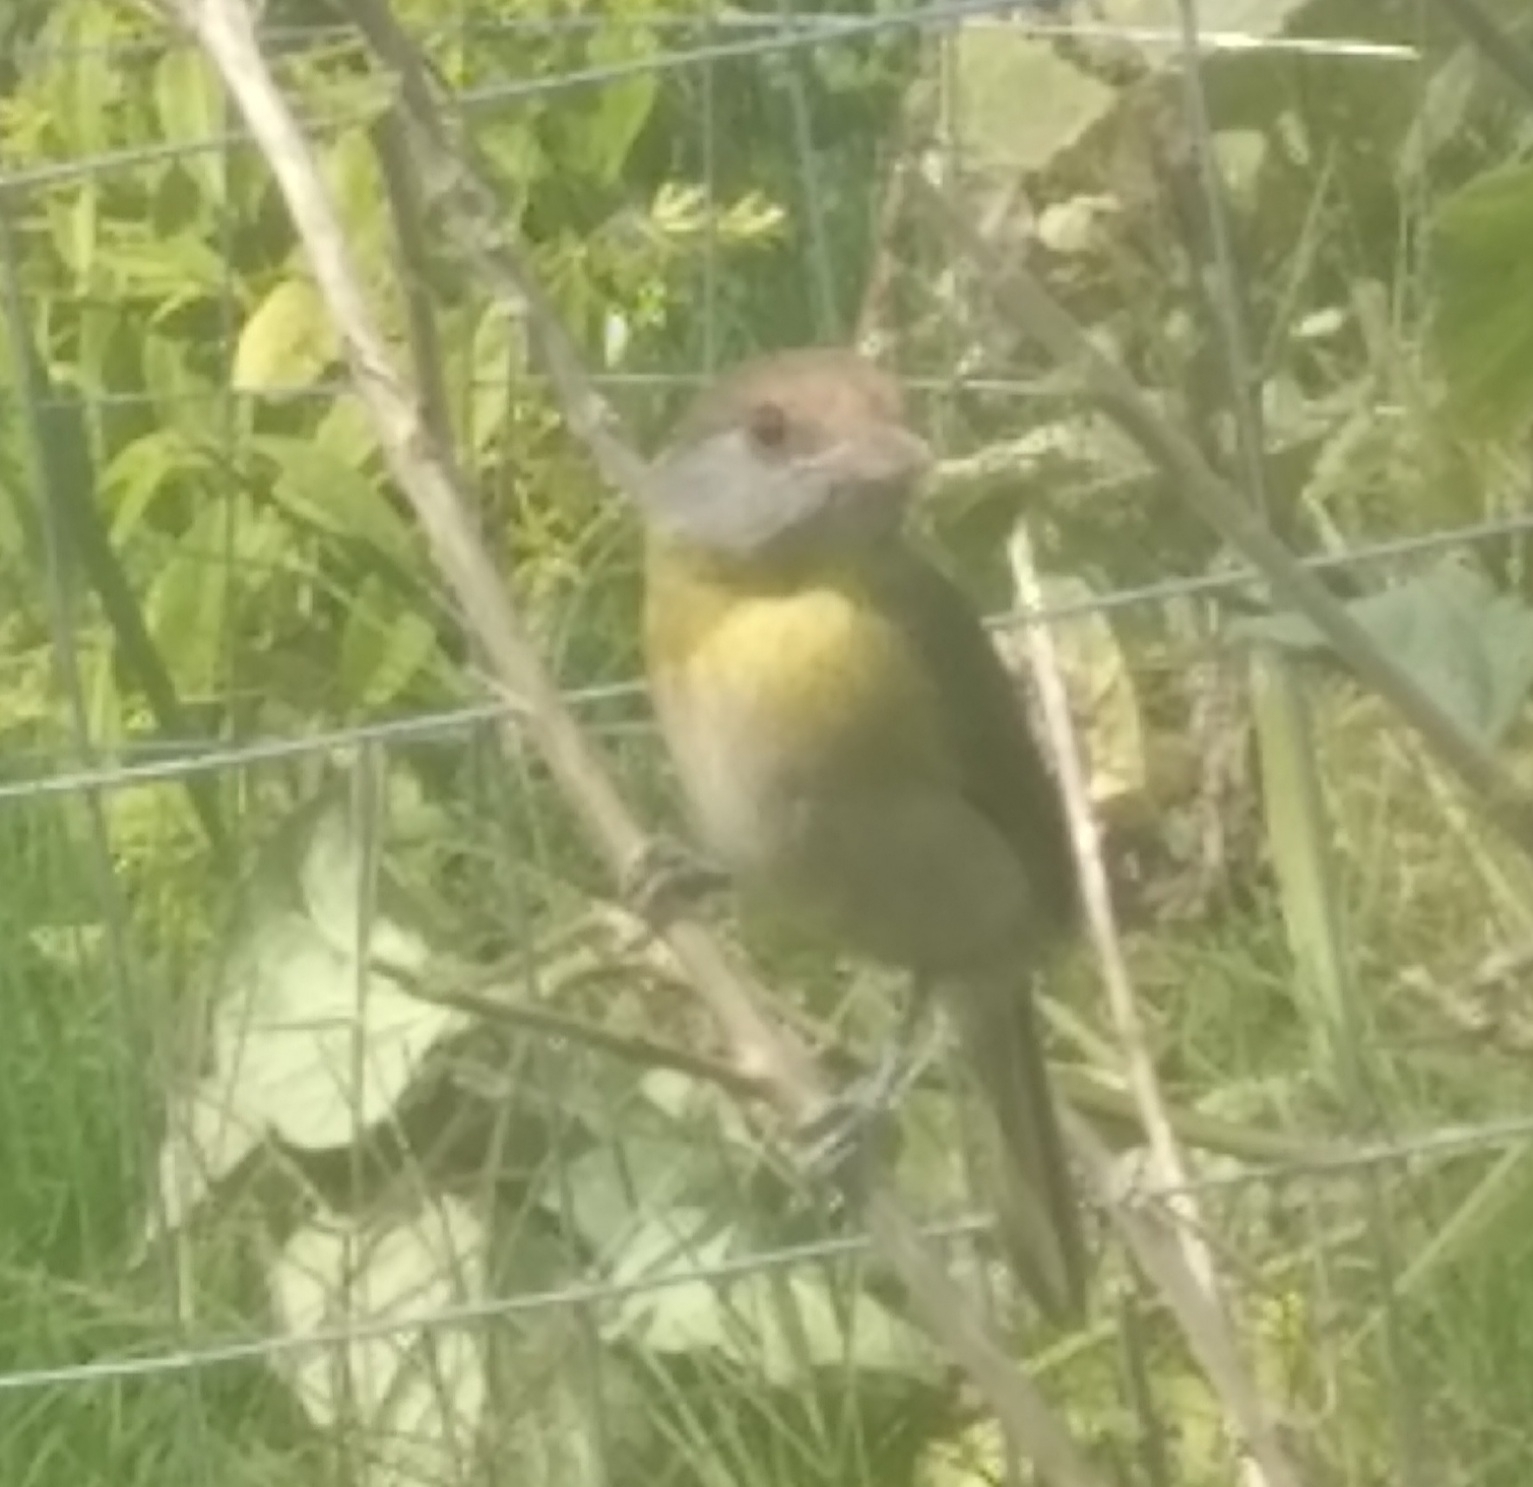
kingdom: Animalia
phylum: Chordata
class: Aves
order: Passeriformes
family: Vireonidae
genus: Cyclarhis
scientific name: Cyclarhis gujanensis
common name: Rufous-browed peppershrike
